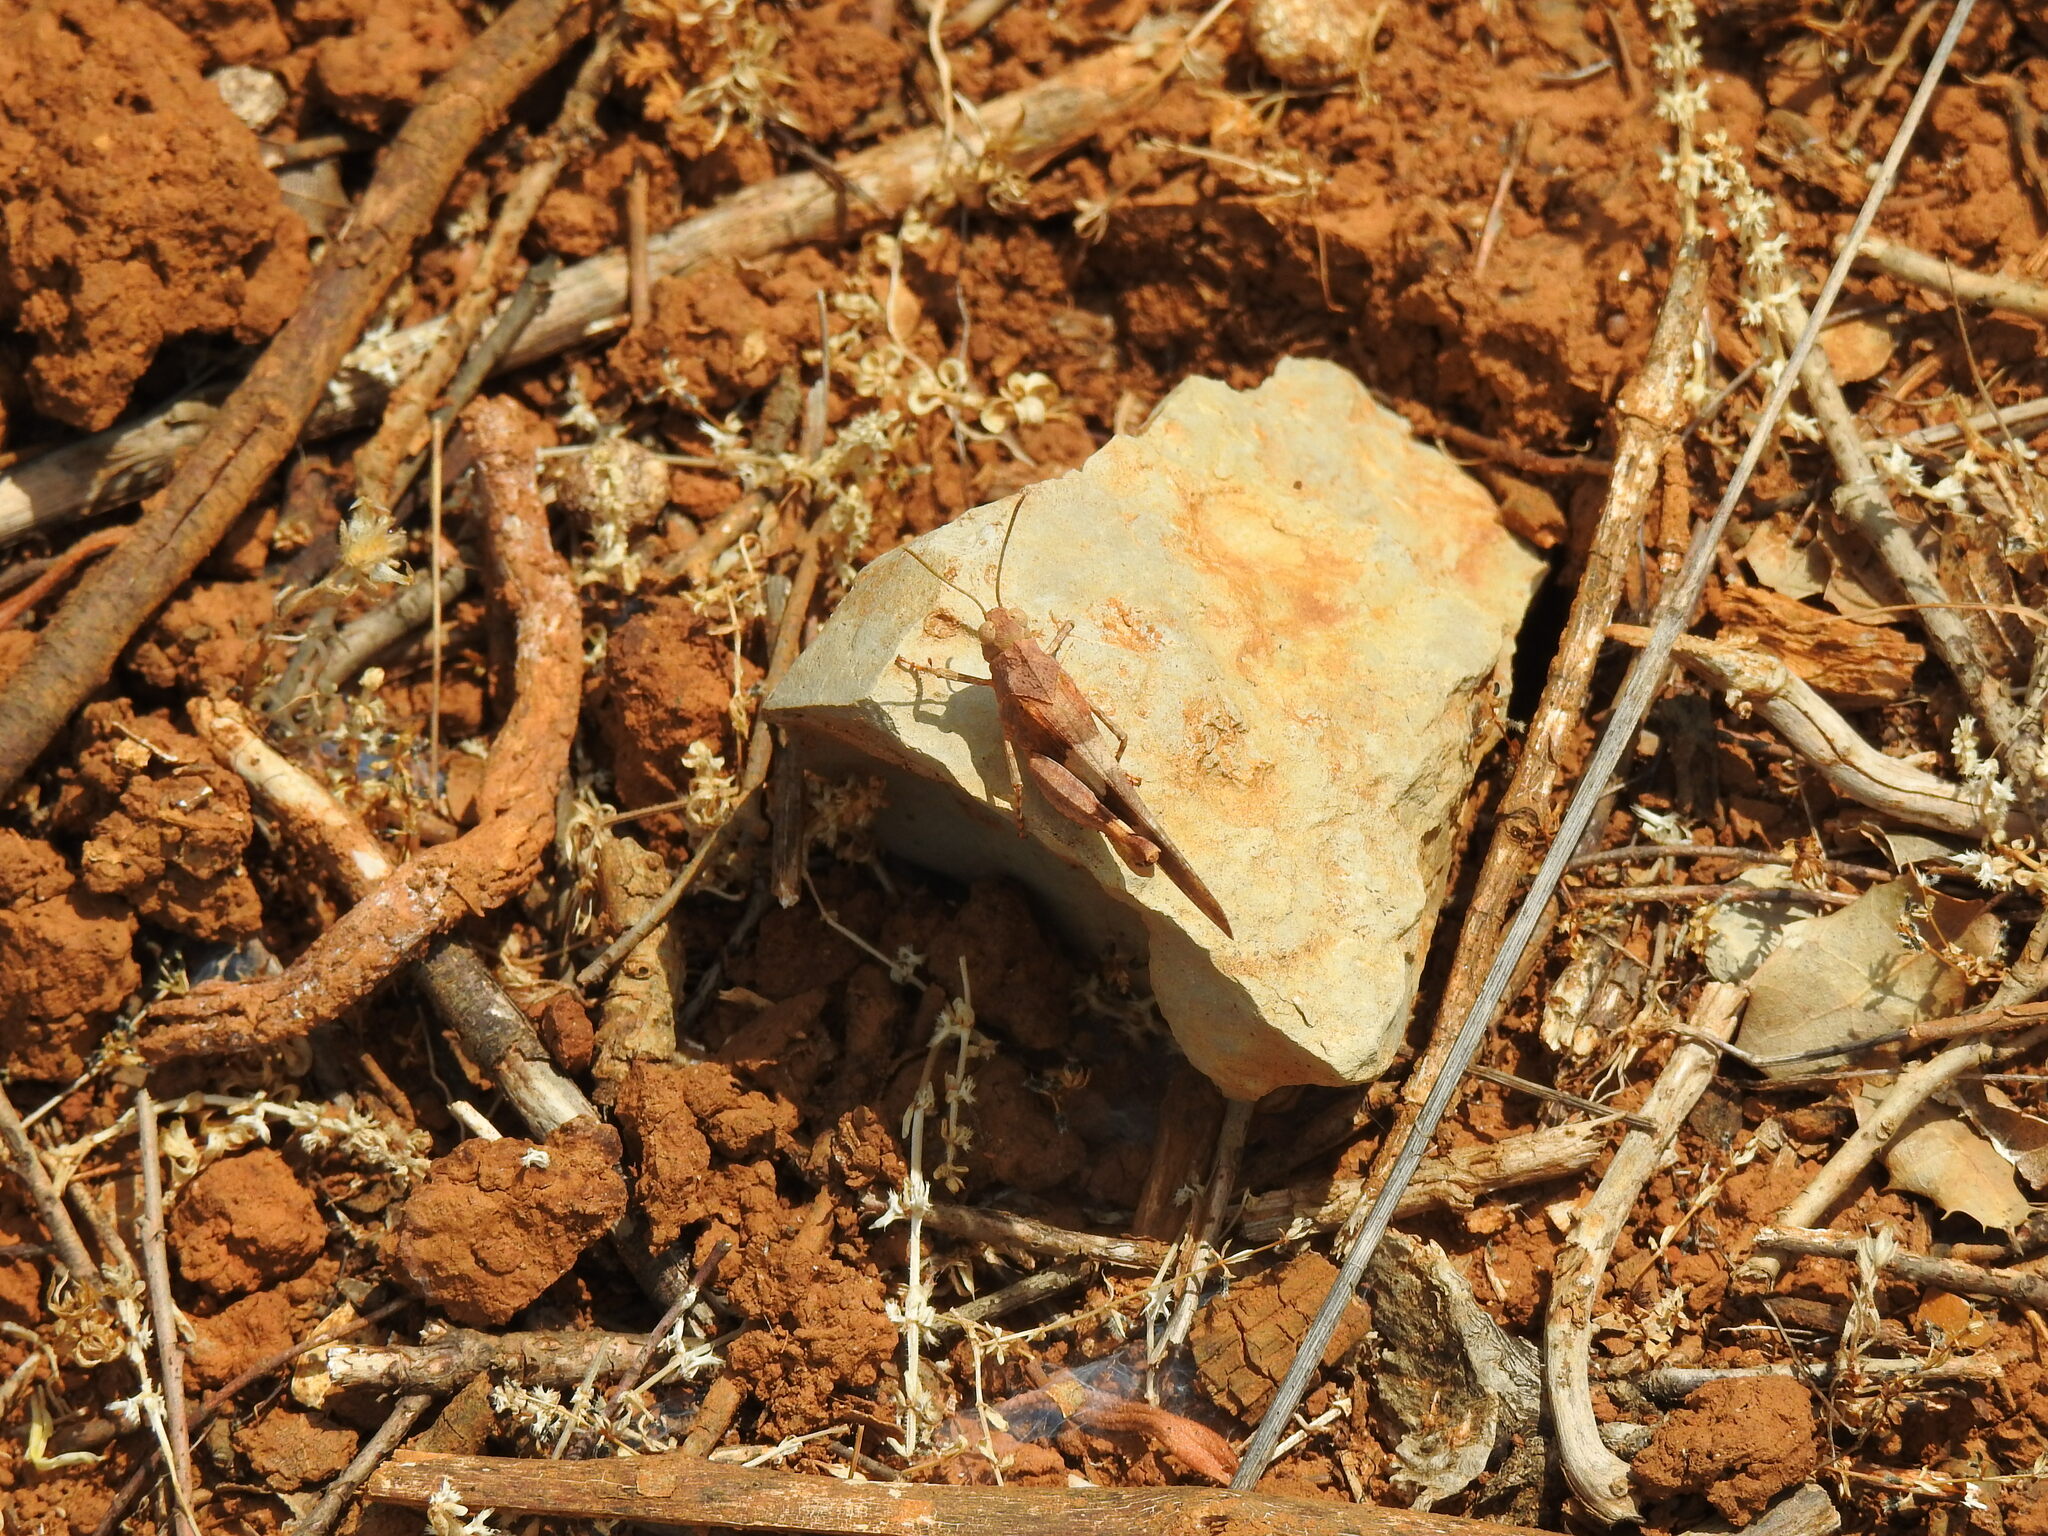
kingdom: Animalia
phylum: Arthropoda
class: Insecta
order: Orthoptera
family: Acrididae
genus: Oedipoda
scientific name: Oedipoda caerulescens
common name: Blue-winged grasshopper
